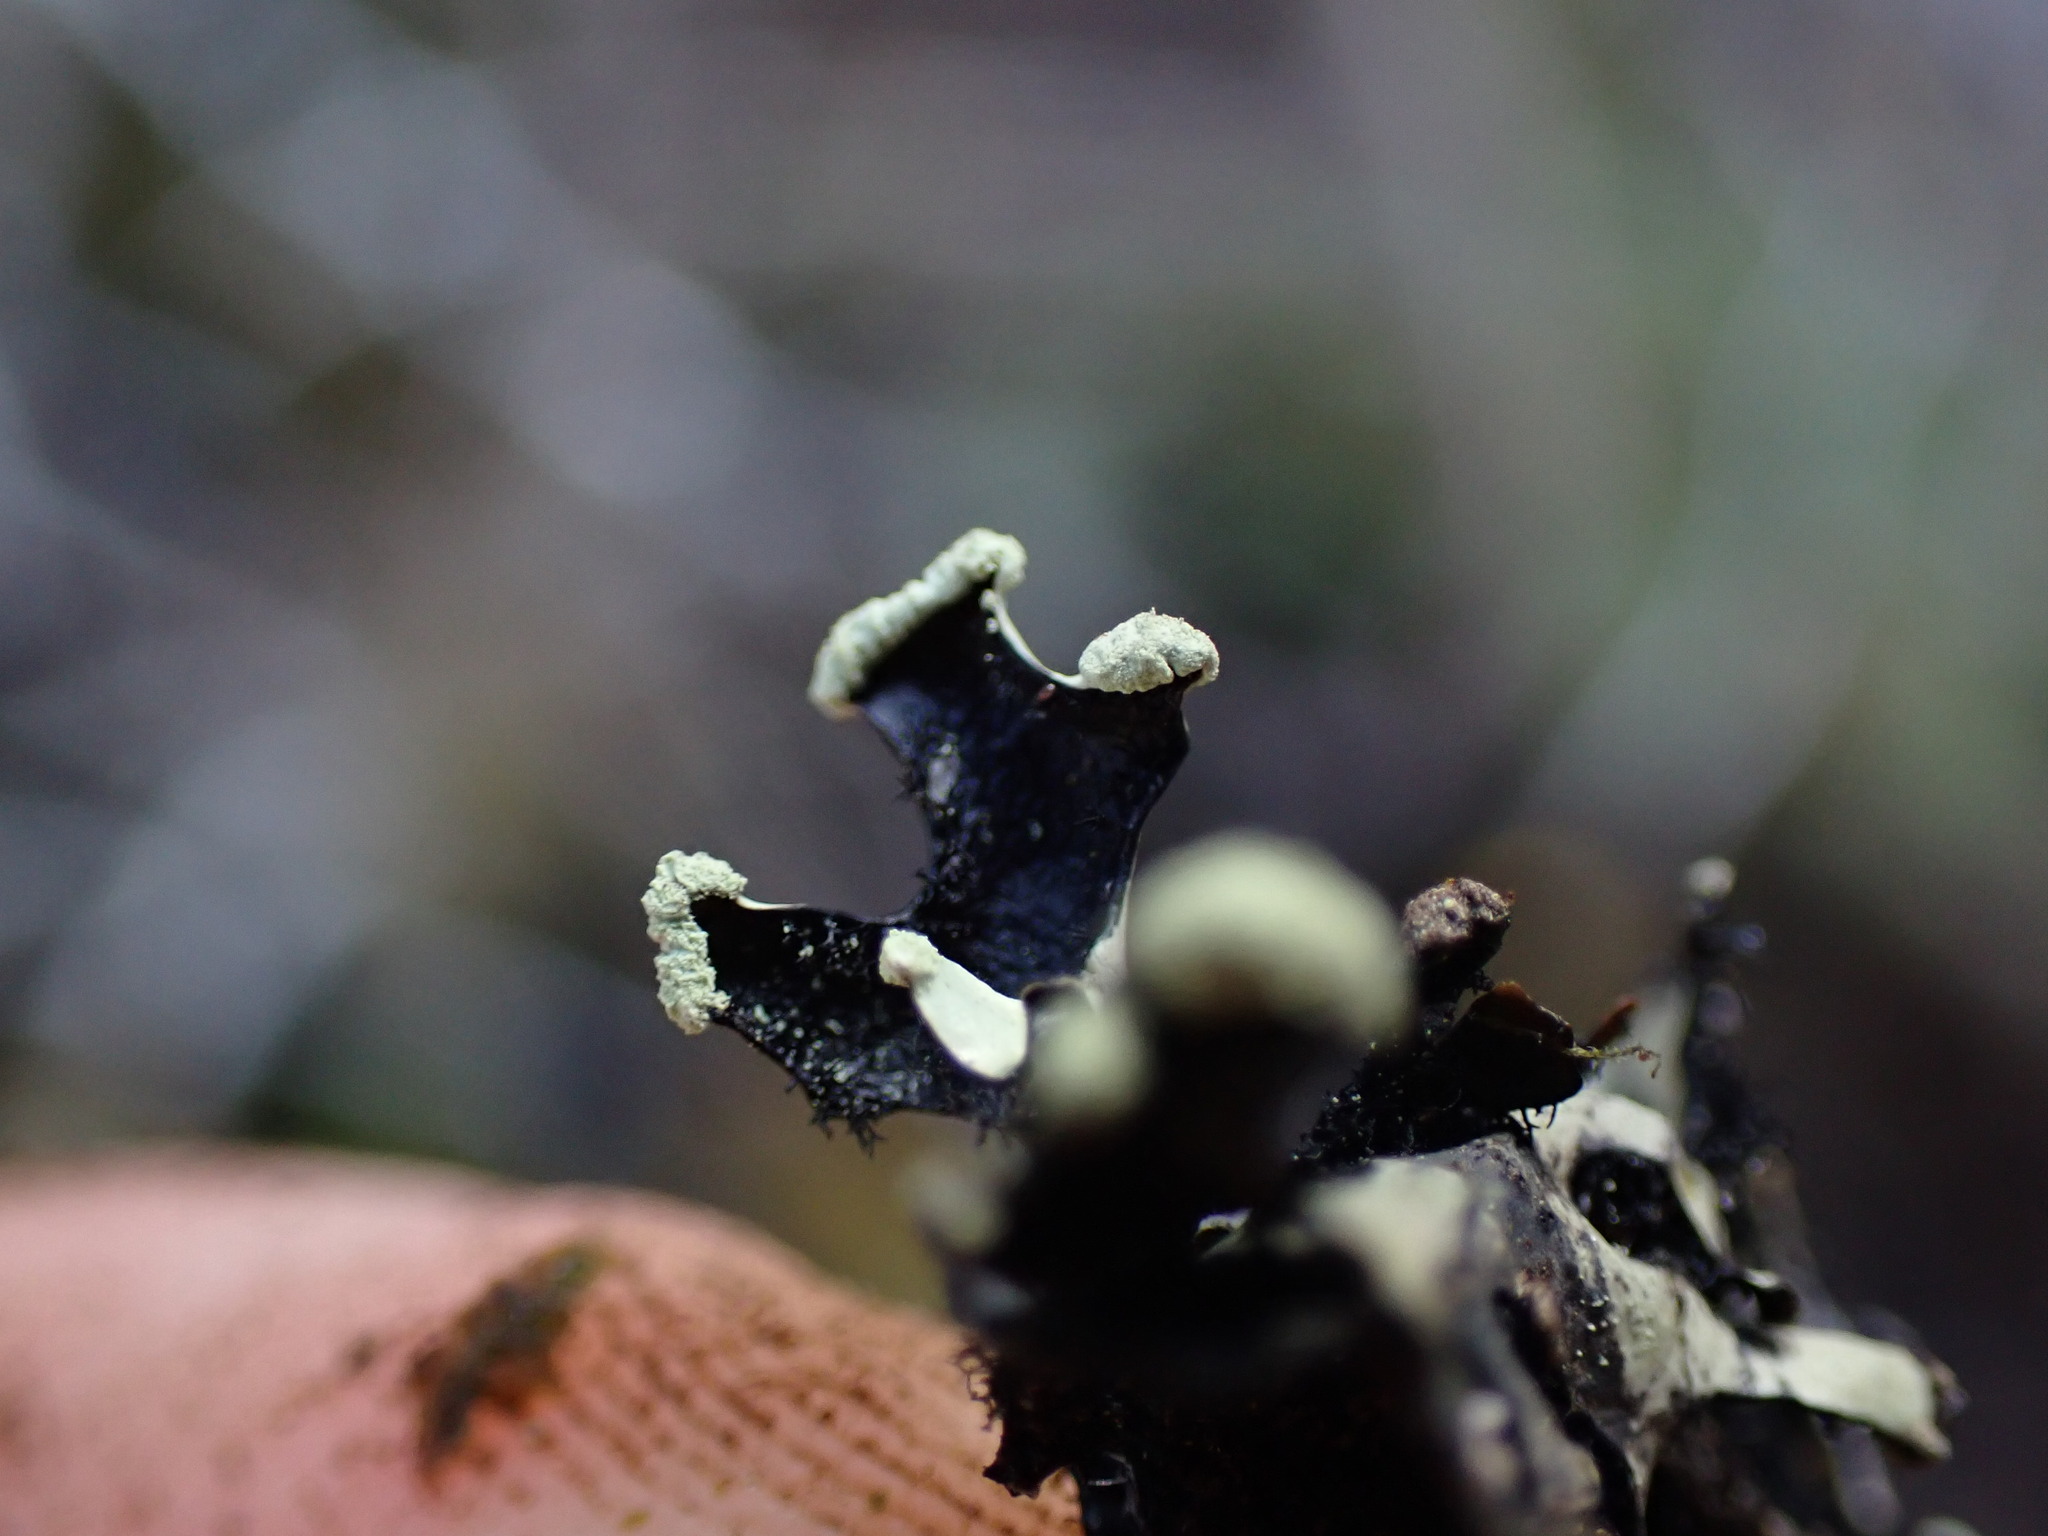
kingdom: Fungi
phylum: Ascomycota
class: Lecanoromycetes
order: Lecanorales
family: Parmeliaceae
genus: Hypotrachyna
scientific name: Hypotrachyna sinuosa
